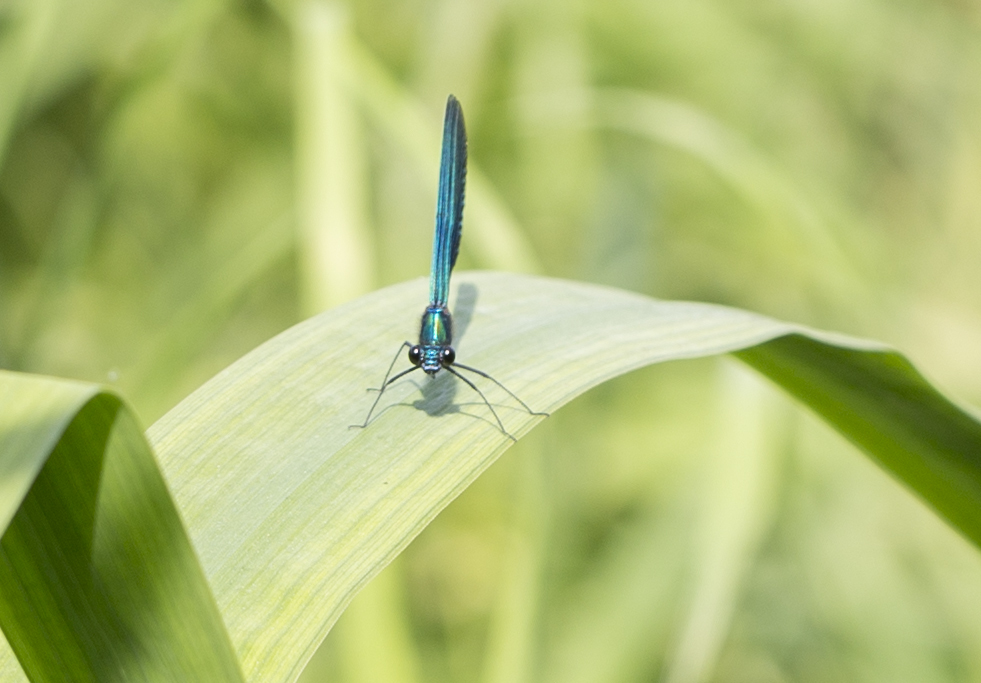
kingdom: Animalia
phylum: Arthropoda
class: Insecta
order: Odonata
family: Calopterygidae
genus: Calopteryx
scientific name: Calopteryx splendens
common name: Banded demoiselle
